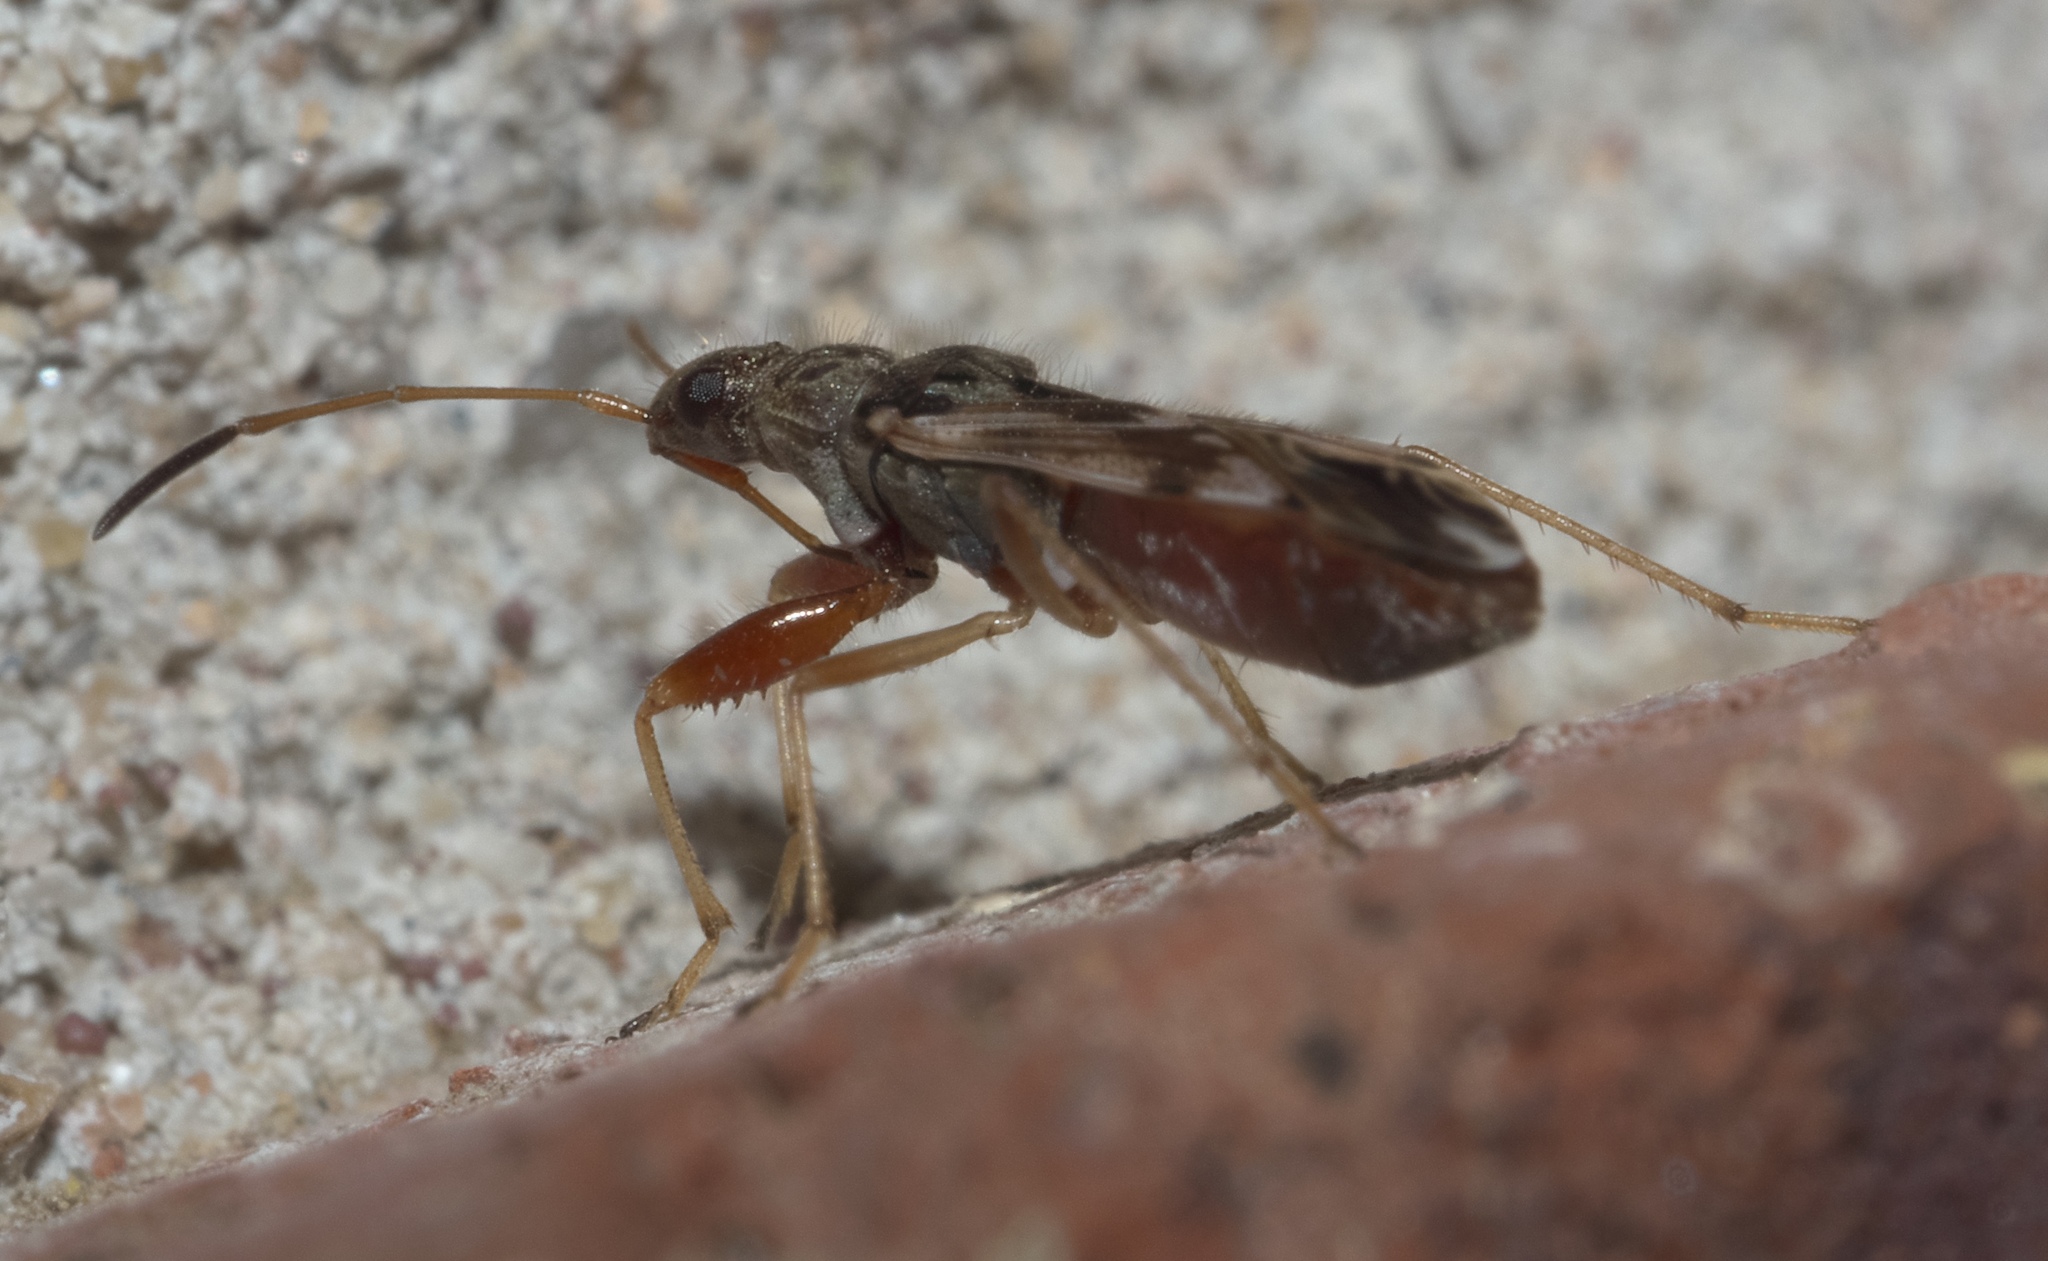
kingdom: Animalia
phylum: Arthropoda
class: Insecta
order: Hemiptera
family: Rhyparochromidae
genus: Neopamera
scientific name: Neopamera bilobata
